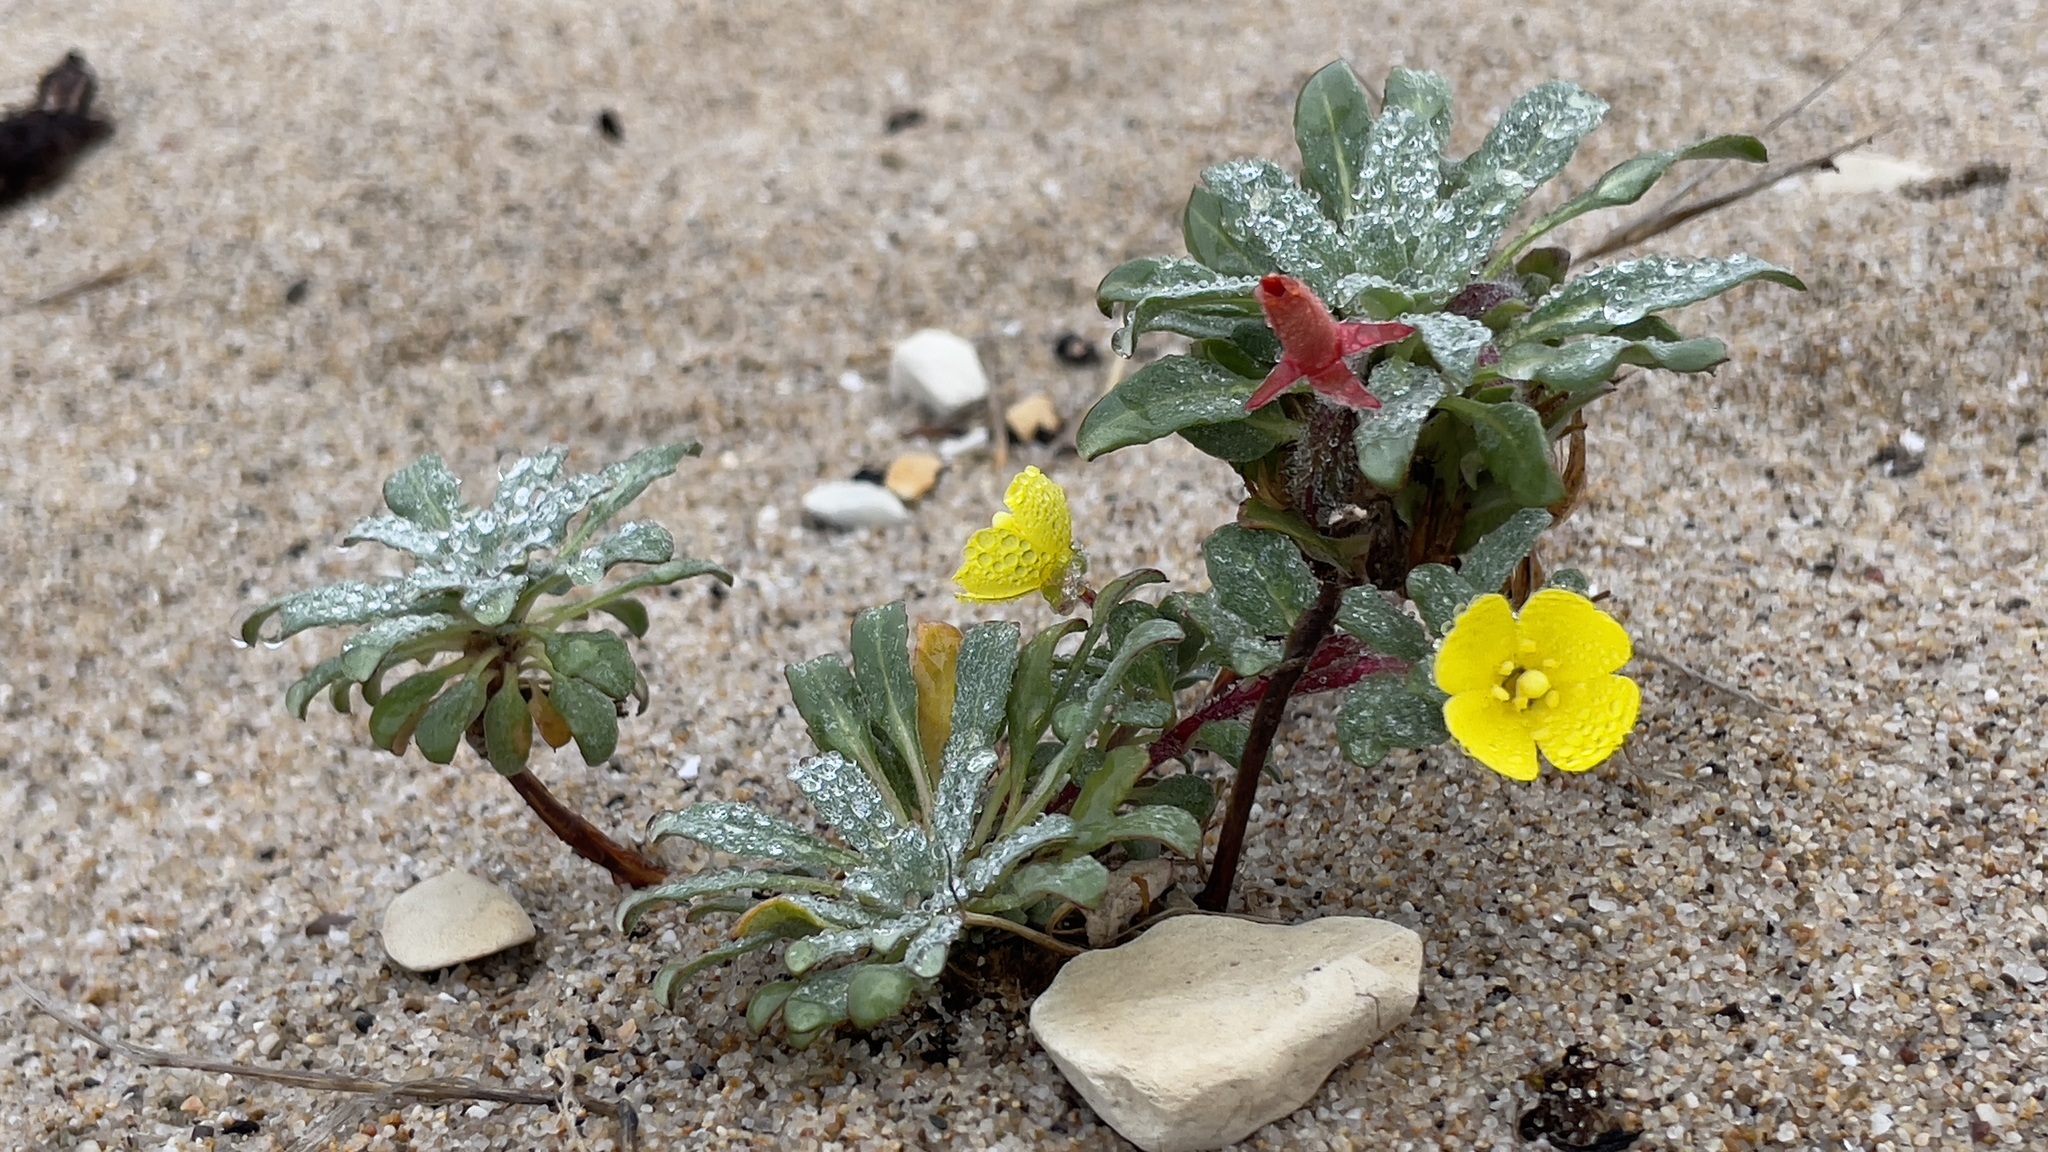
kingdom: Plantae
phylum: Tracheophyta
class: Magnoliopsida
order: Myrtales
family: Onagraceae
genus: Camissoniopsis
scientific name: Camissoniopsis cheiranthifolia
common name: Beach suncup
